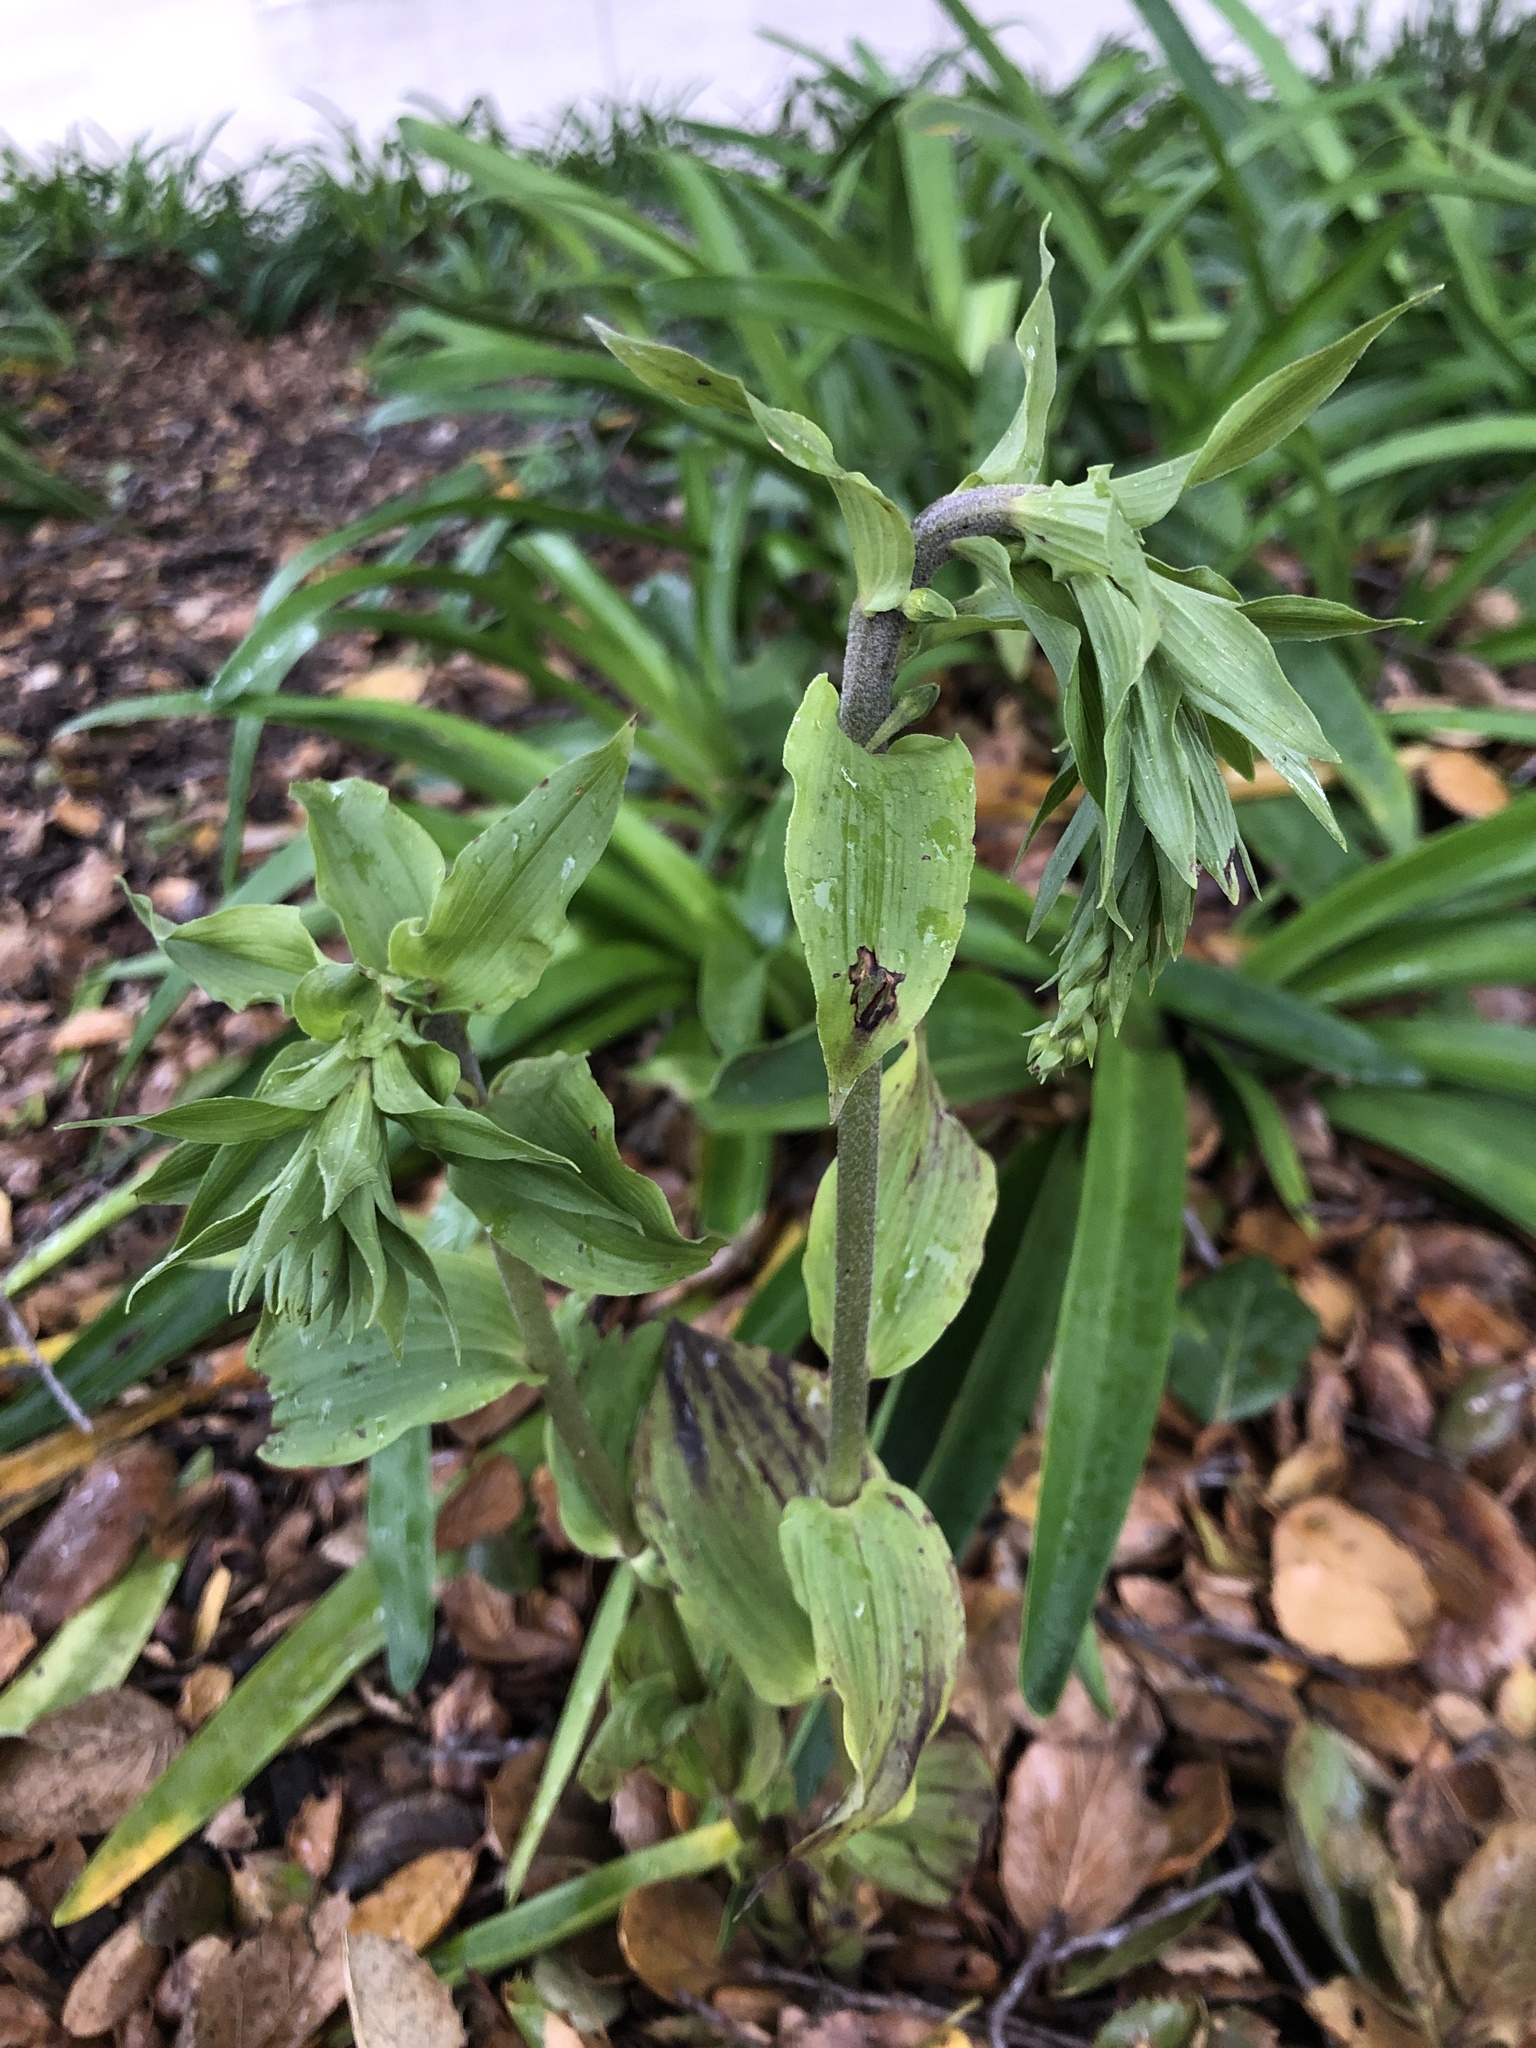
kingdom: Plantae
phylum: Tracheophyta
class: Liliopsida
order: Asparagales
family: Orchidaceae
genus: Epipactis
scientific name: Epipactis helleborine
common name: Broad-leaved helleborine
